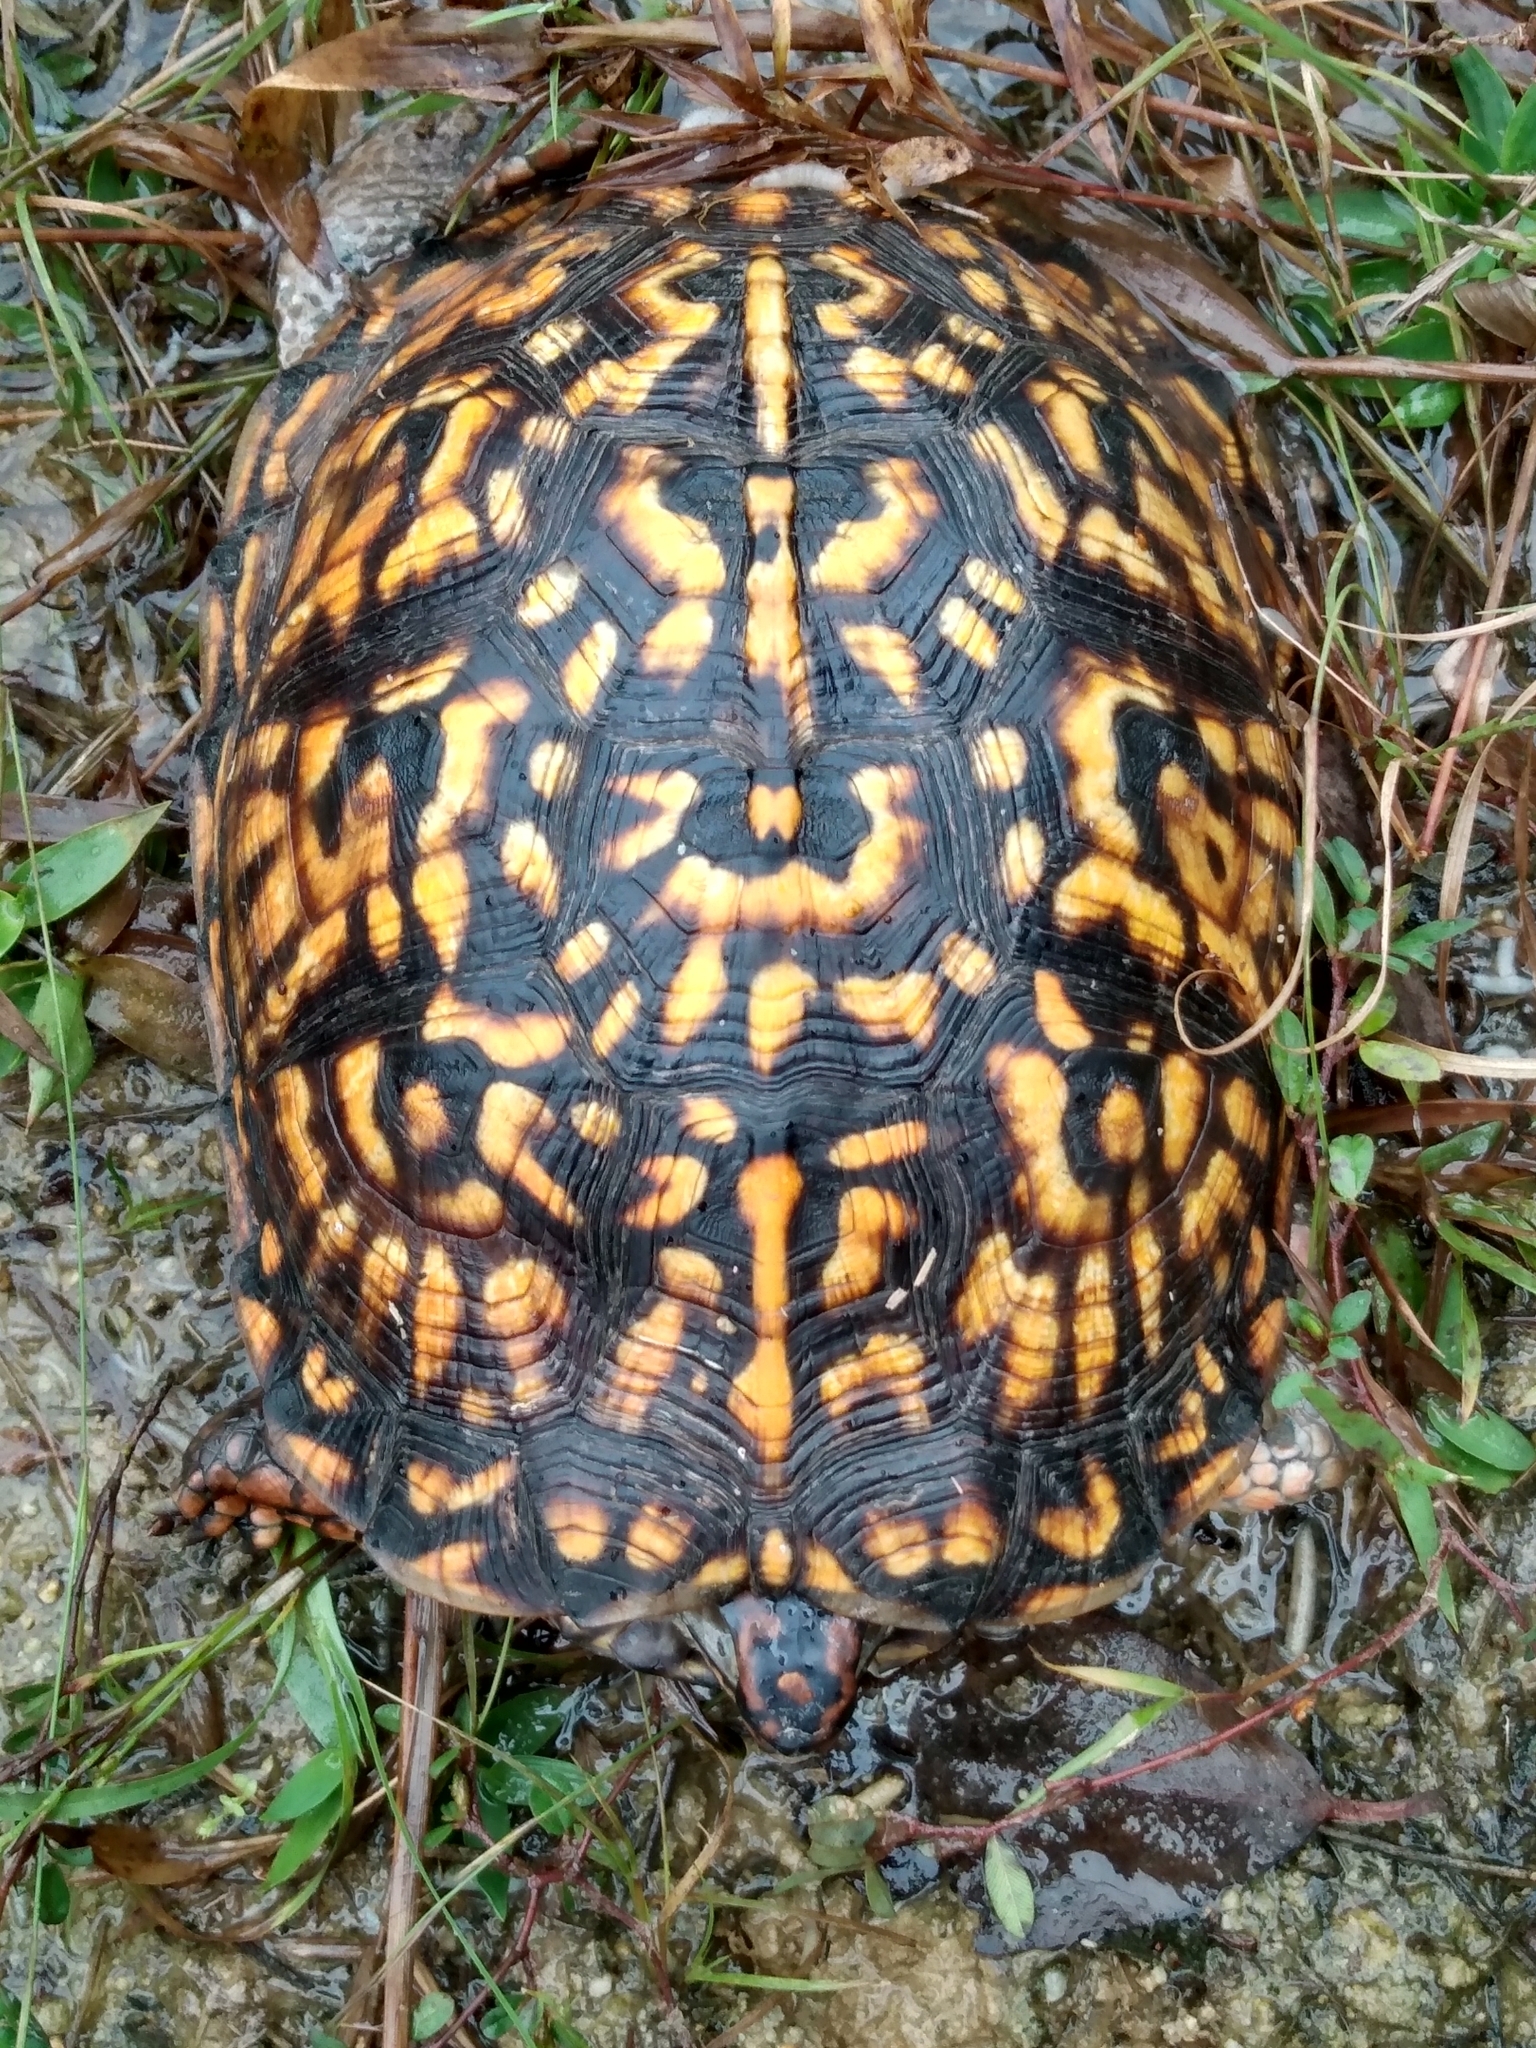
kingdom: Animalia
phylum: Chordata
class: Testudines
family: Emydidae
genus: Terrapene
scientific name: Terrapene carolina
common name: Common box turtle
